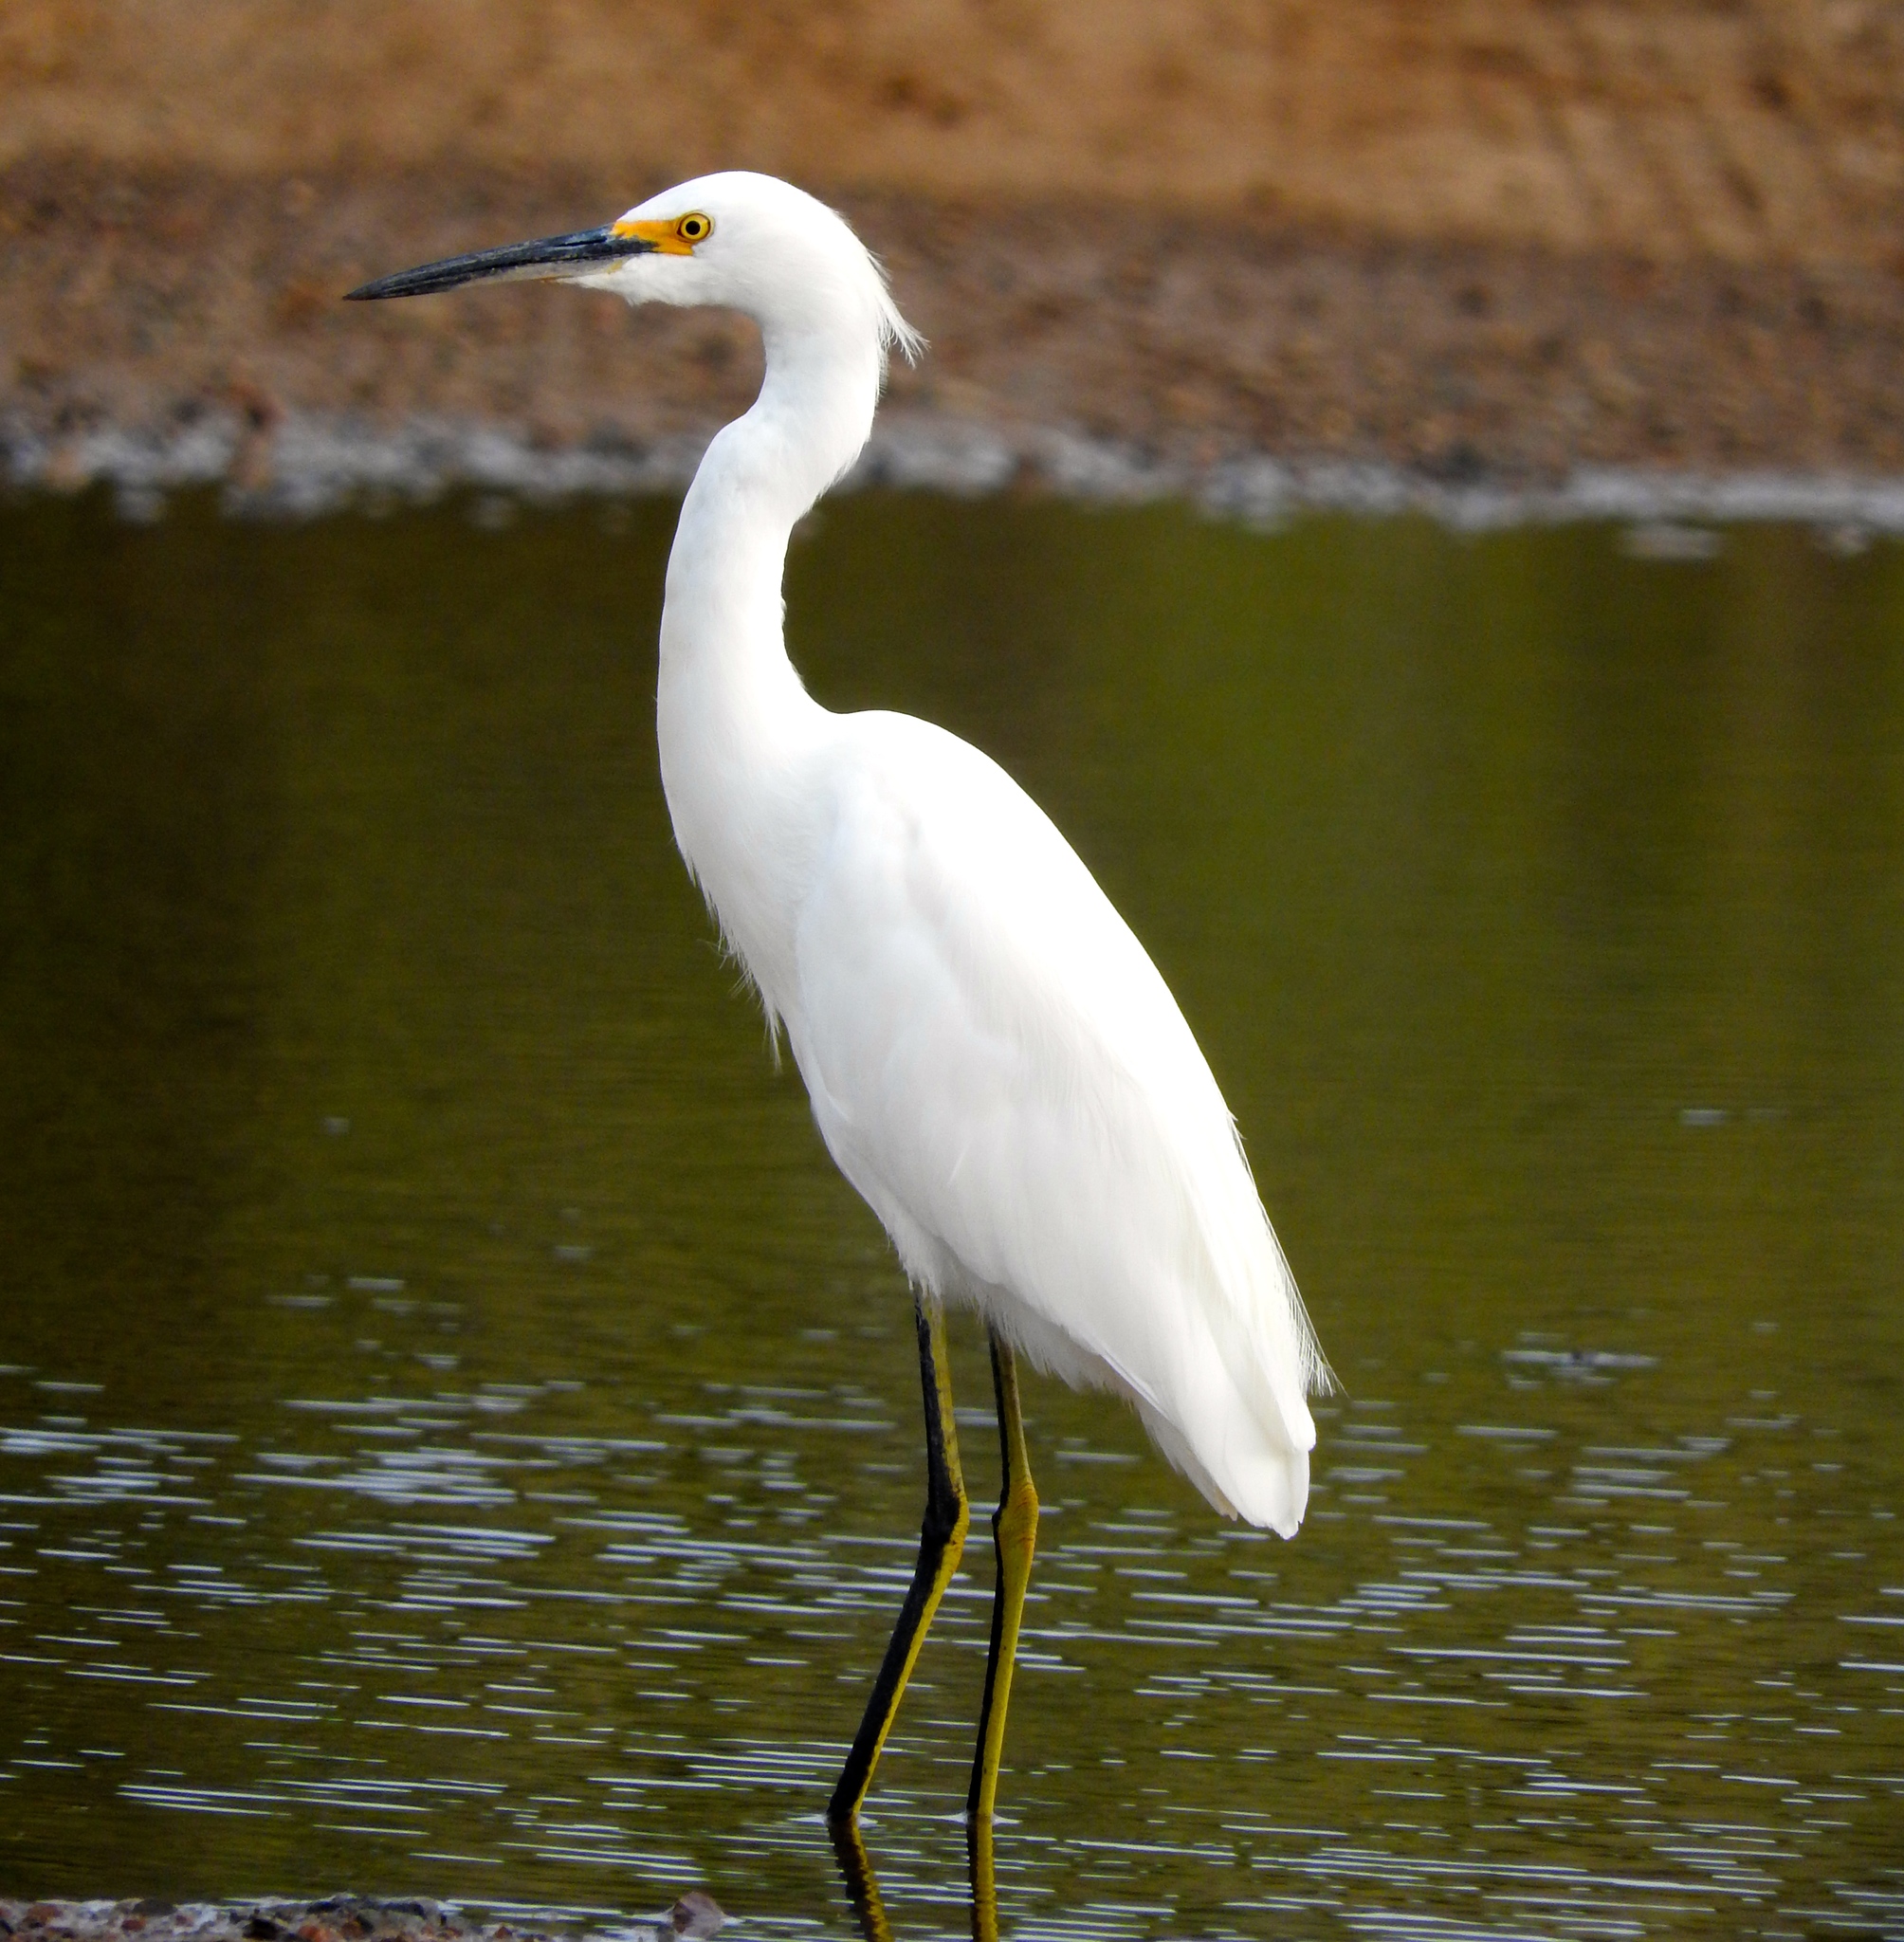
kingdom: Animalia
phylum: Chordata
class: Aves
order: Pelecaniformes
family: Ardeidae
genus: Egretta
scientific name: Egretta thula
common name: Snowy egret
